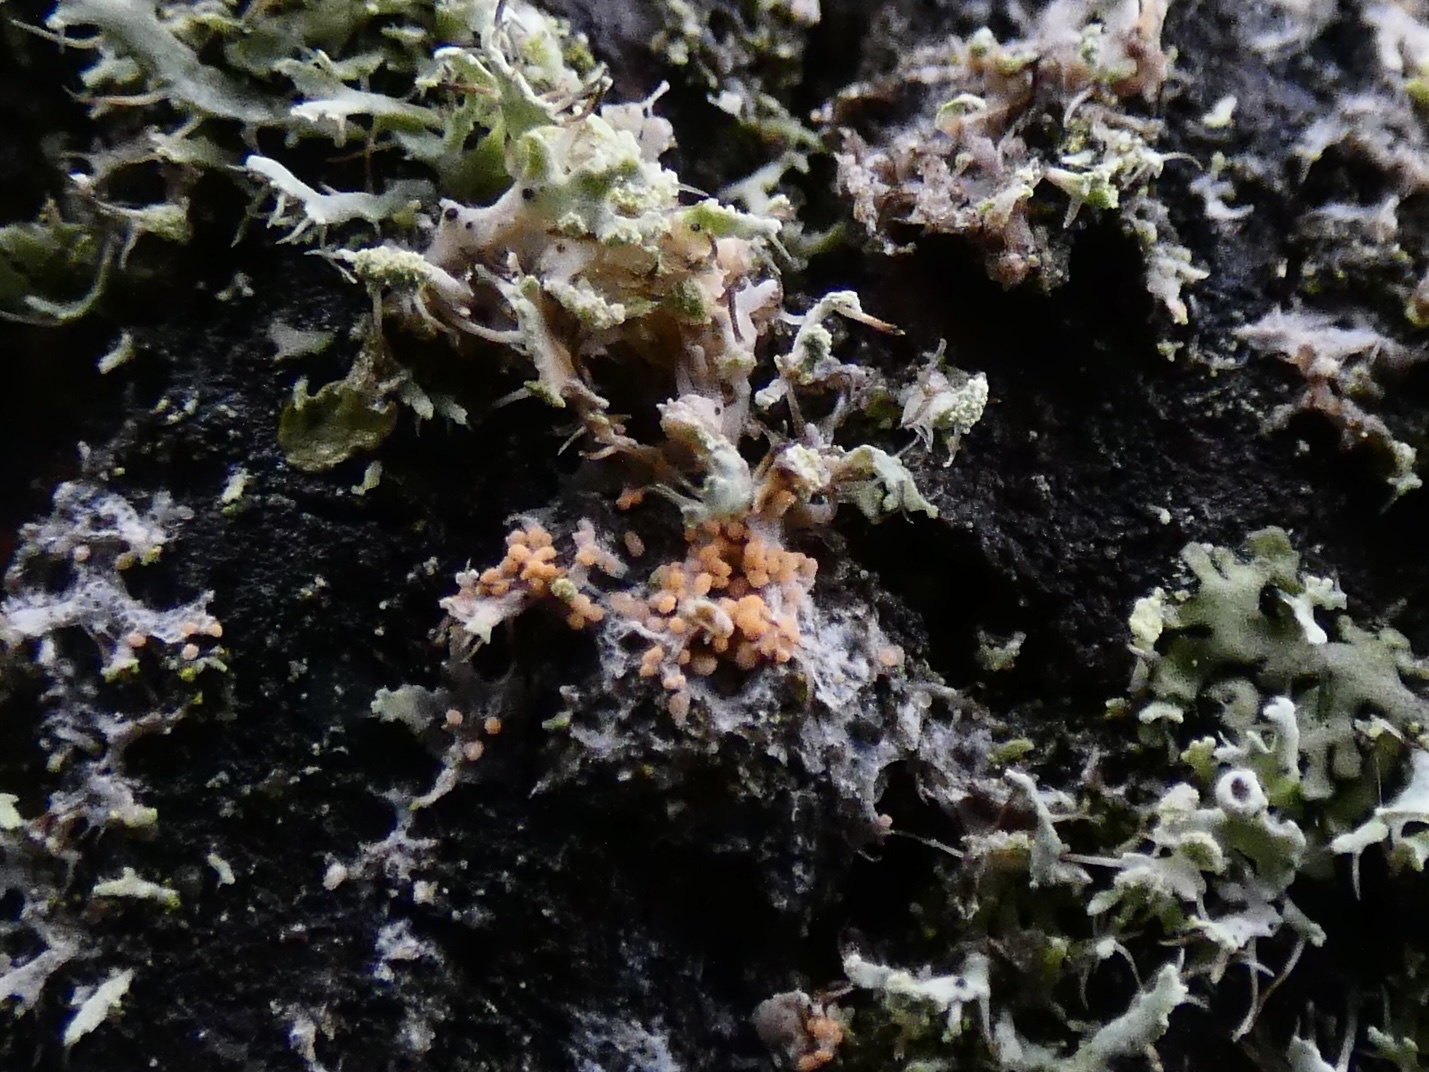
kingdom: Fungi
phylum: Basidiomycota
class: Agaricomycetes
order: Corticiales
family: Corticiaceae
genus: Erythricium
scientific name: Erythricium aurantiacum
